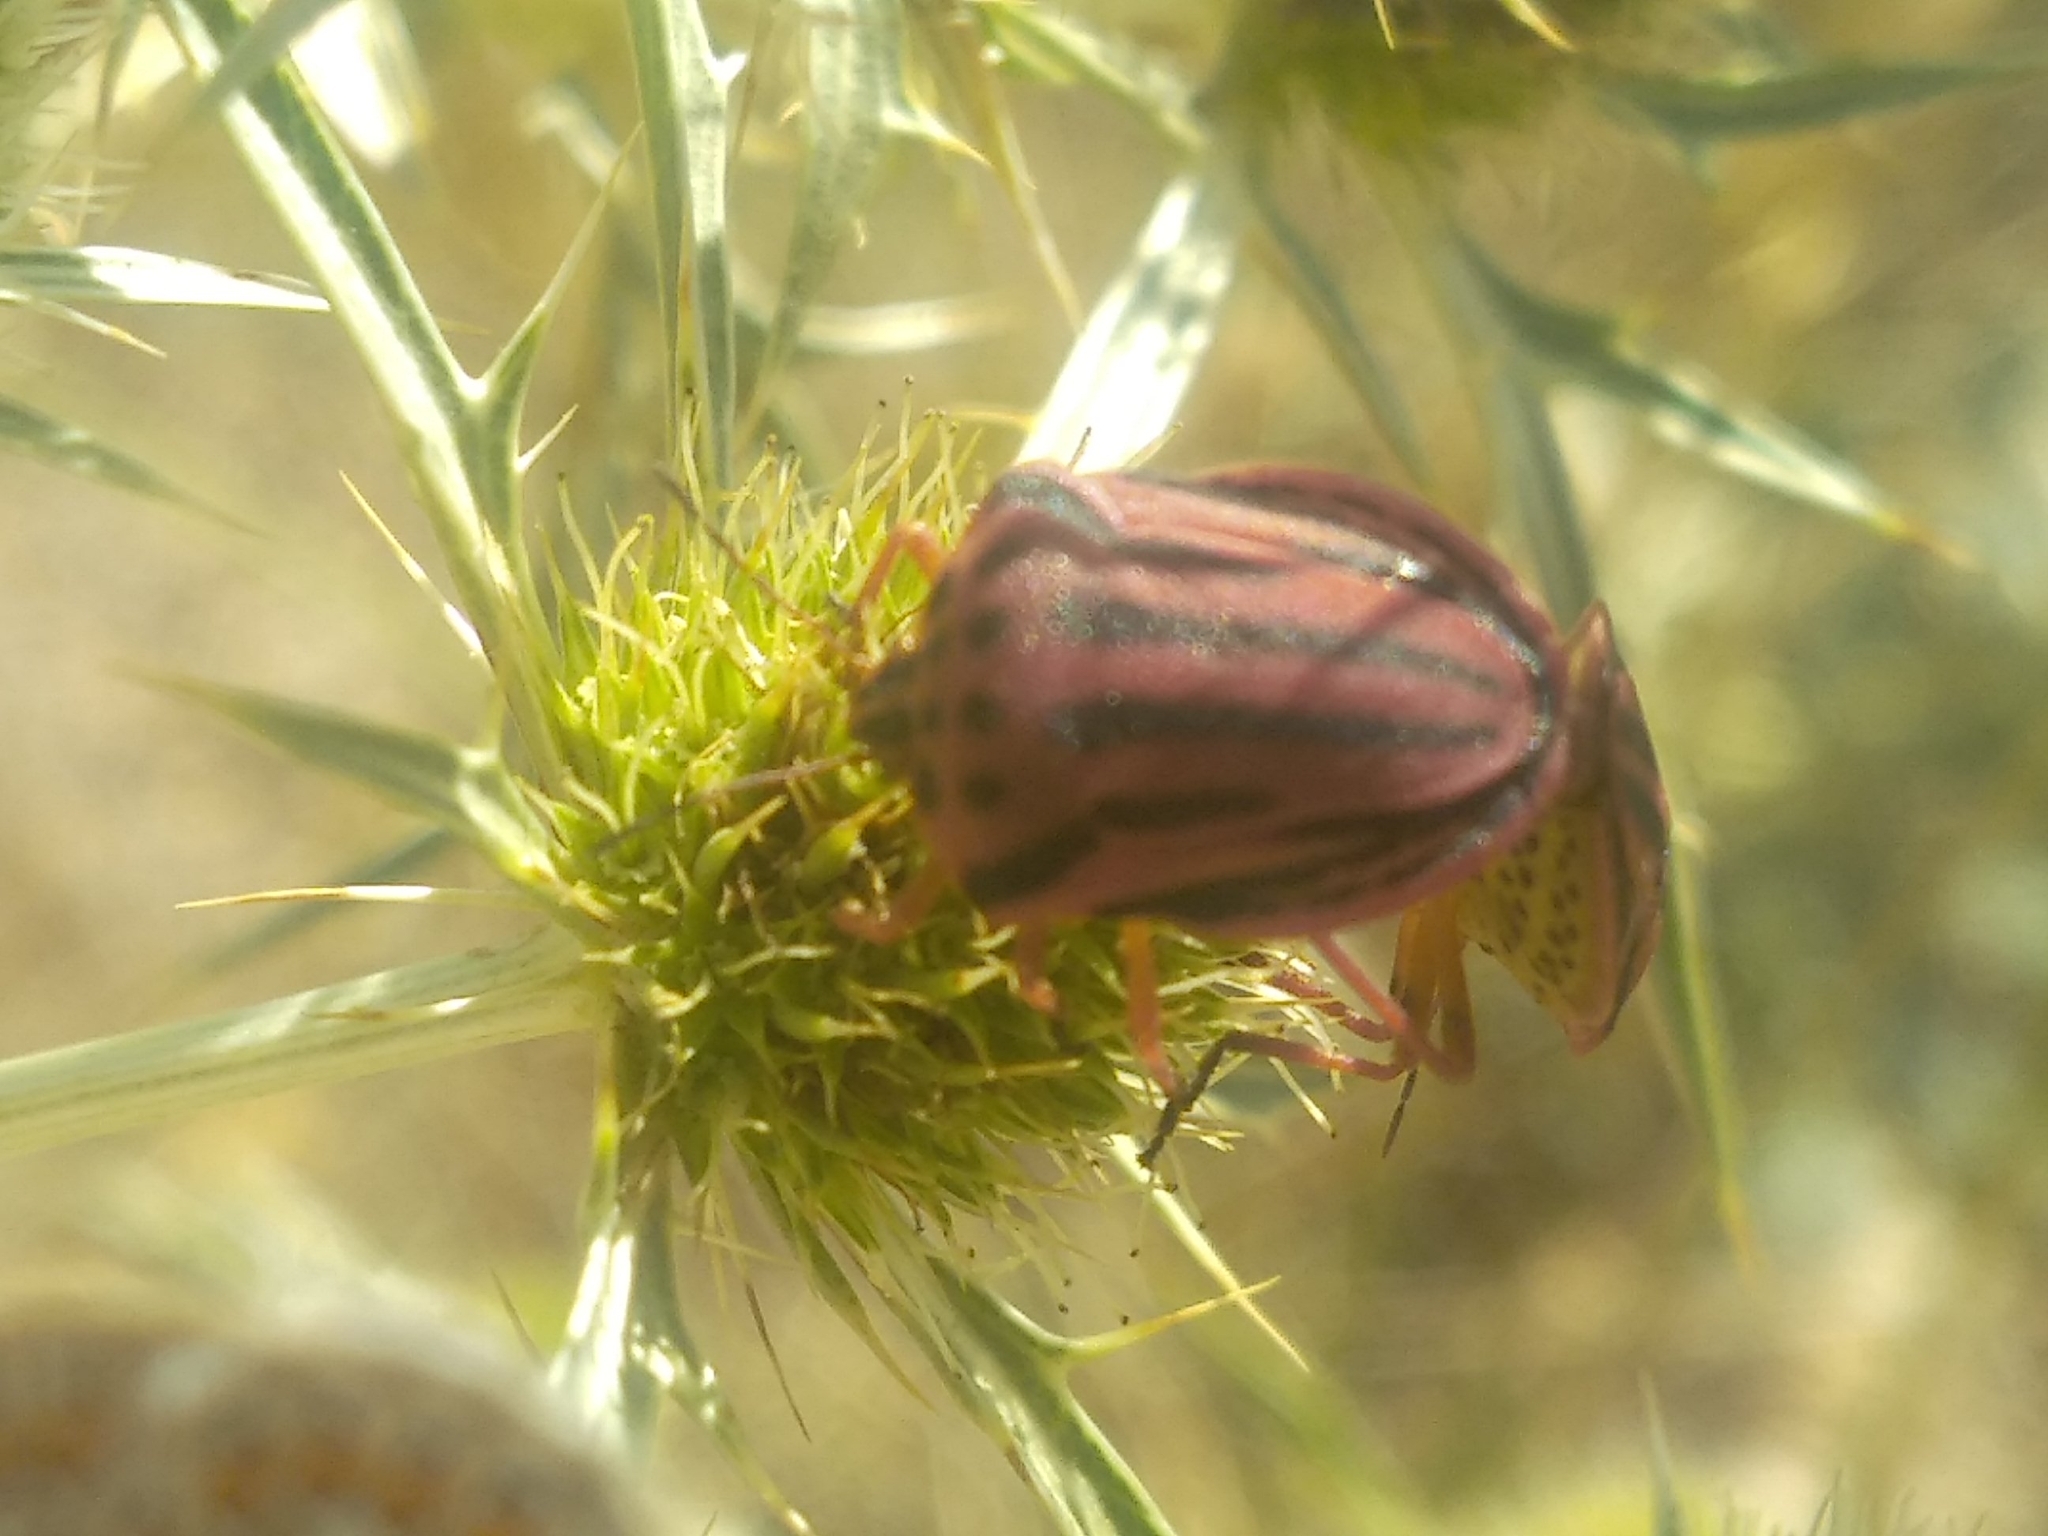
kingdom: Animalia
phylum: Arthropoda
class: Insecta
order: Hemiptera
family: Pentatomidae
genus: Graphosoma
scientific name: Graphosoma semipunctatum
